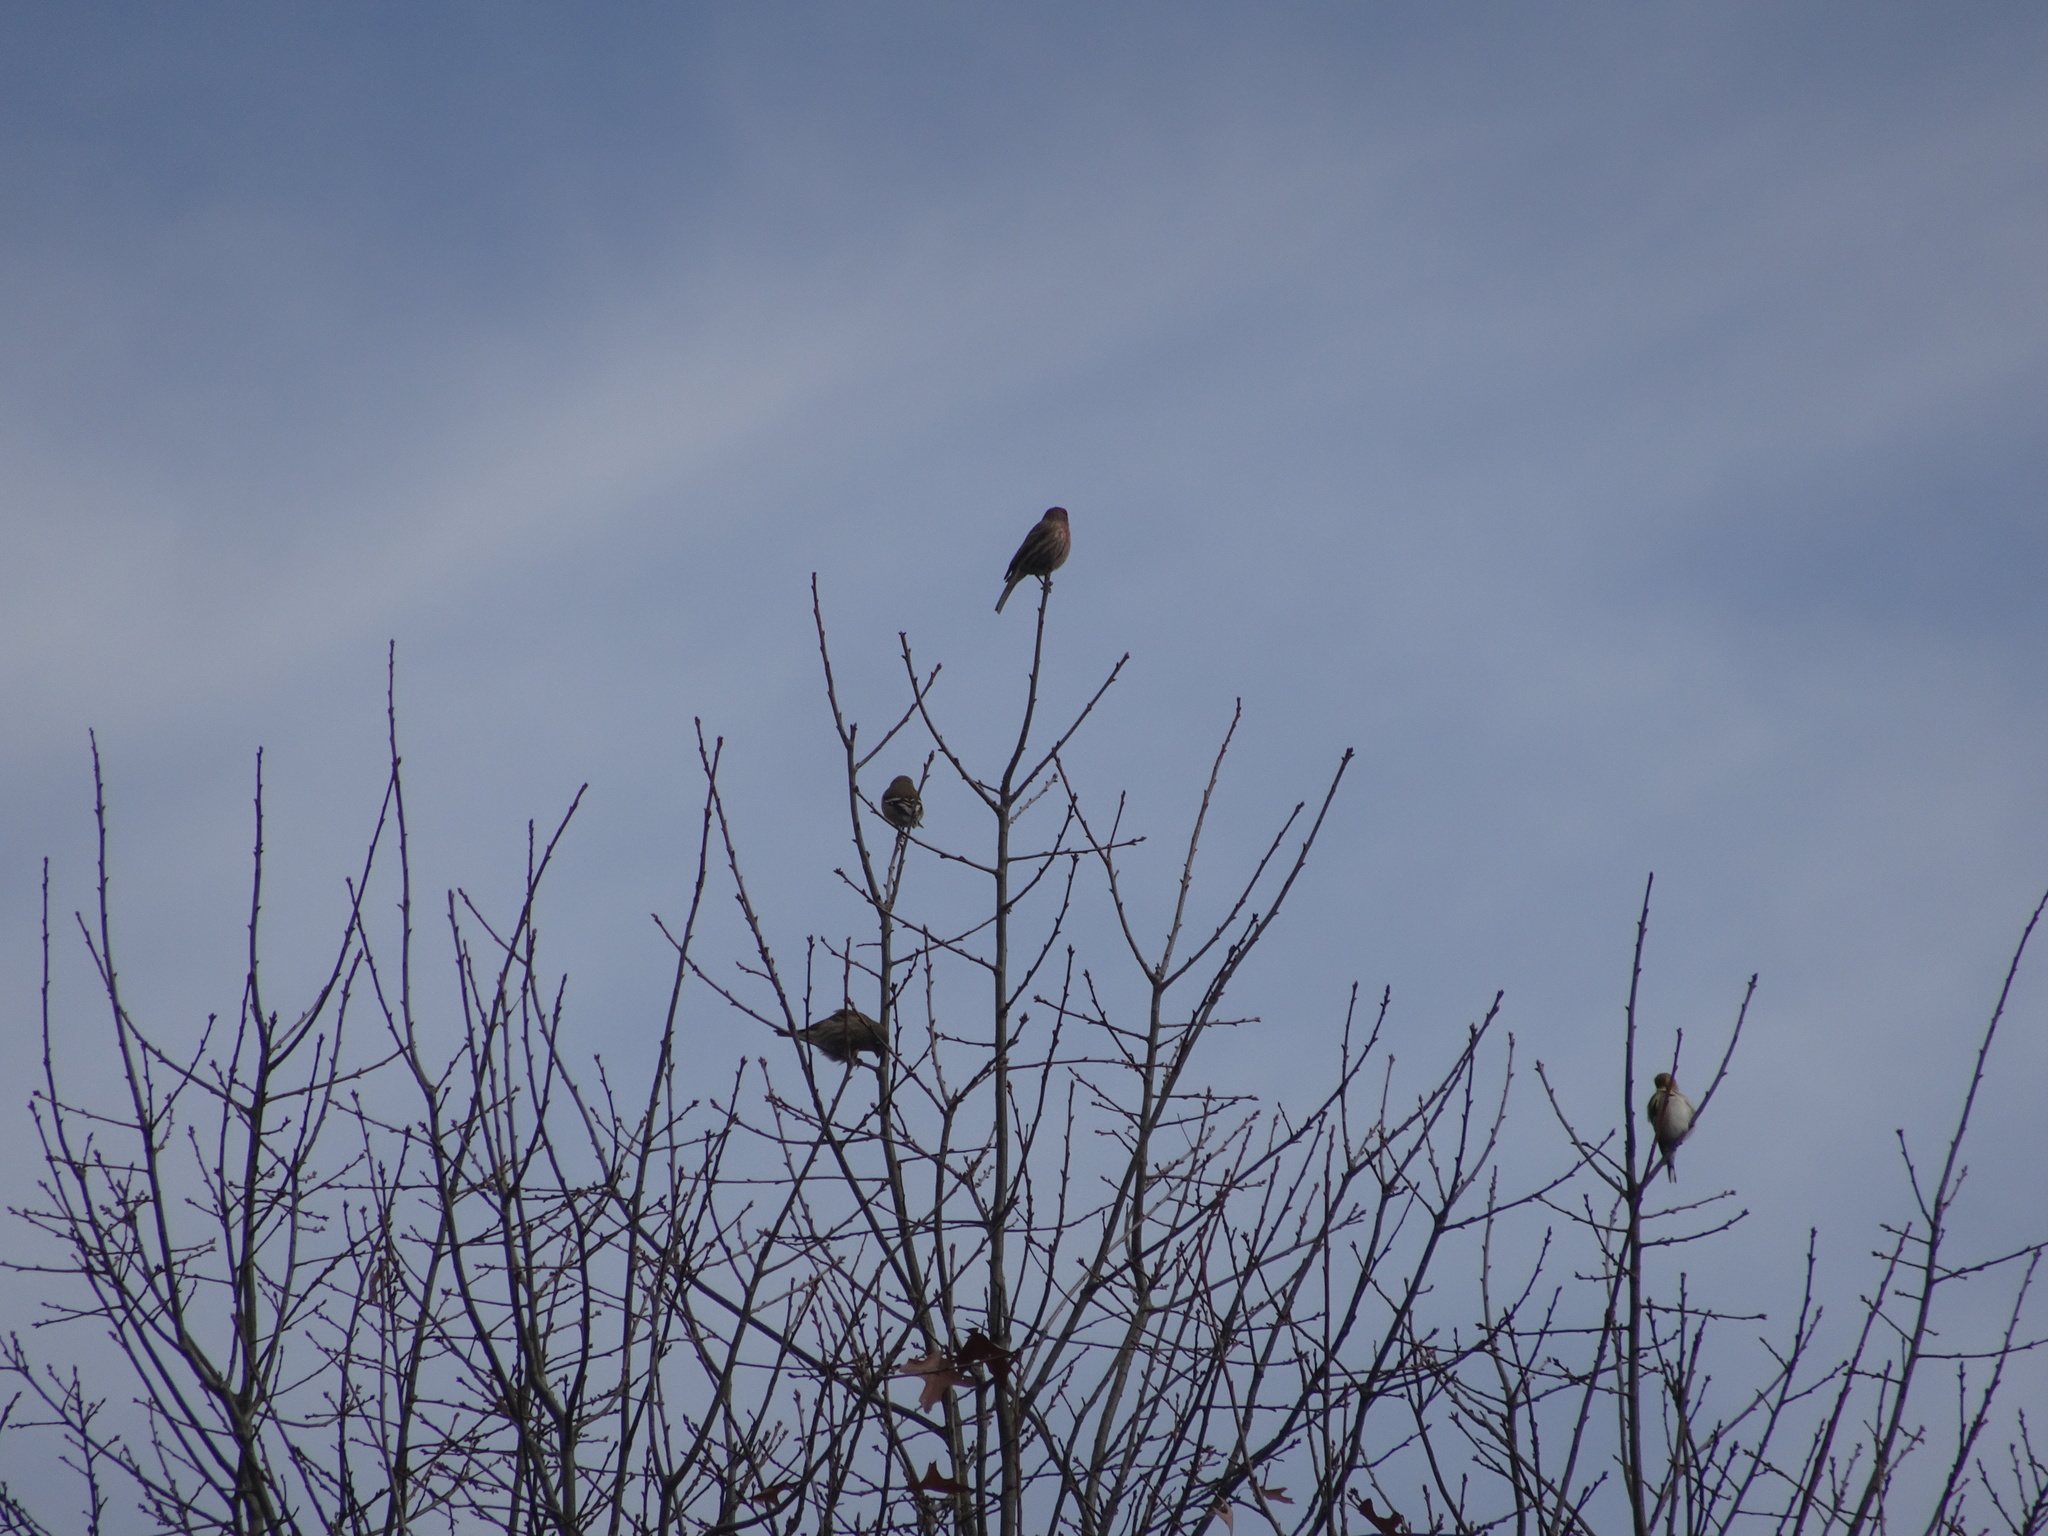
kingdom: Animalia
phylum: Chordata
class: Aves
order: Passeriformes
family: Fringillidae
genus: Haemorhous
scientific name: Haemorhous mexicanus
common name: House finch
